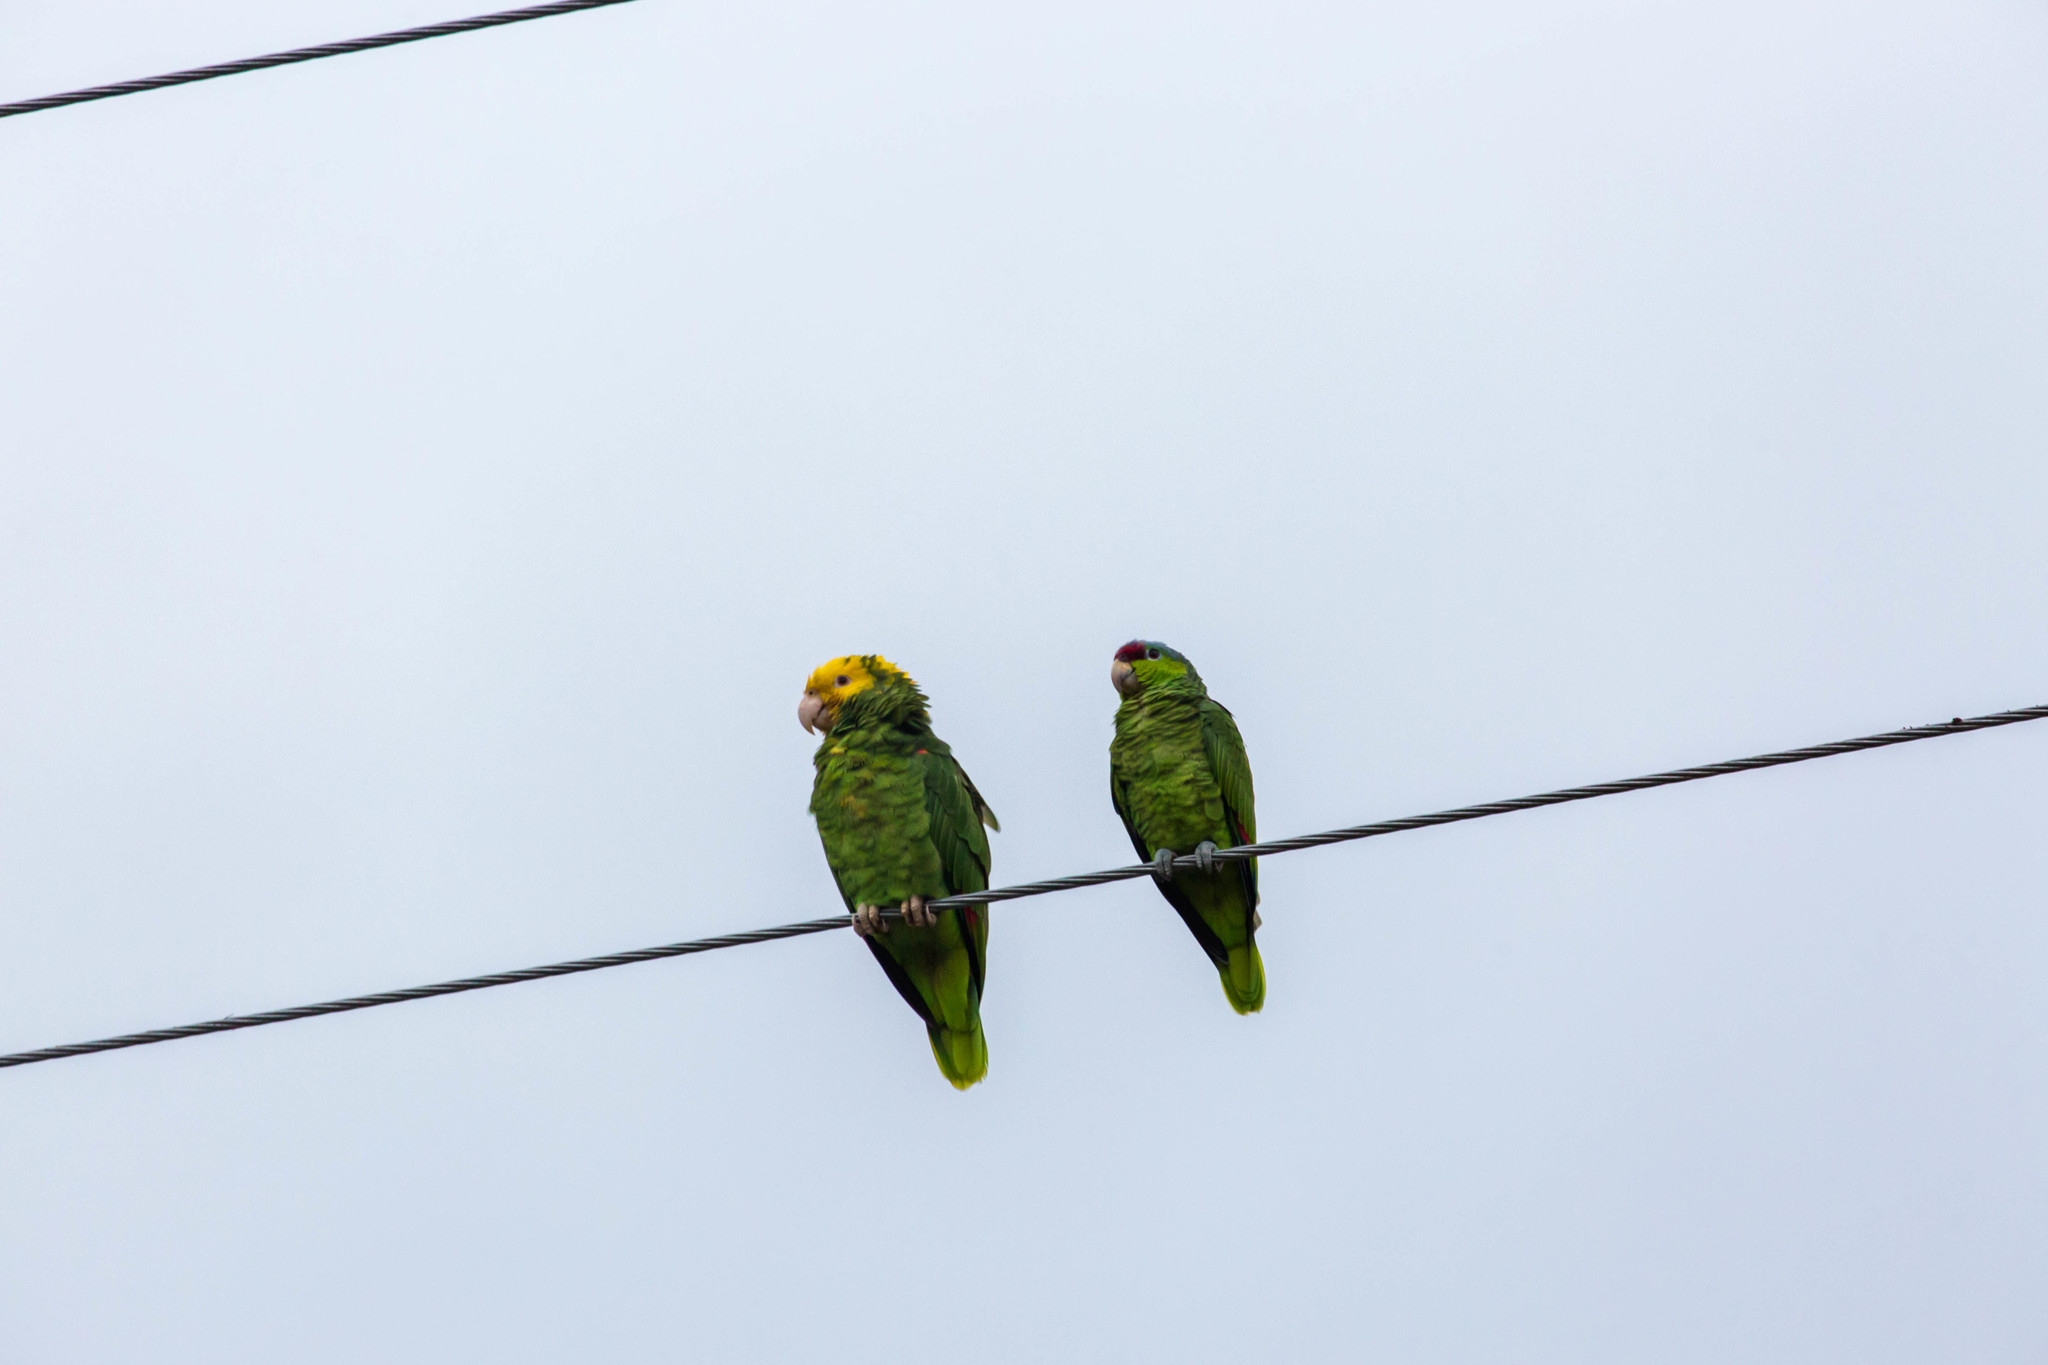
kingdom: Animalia
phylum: Chordata
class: Aves
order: Psittaciformes
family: Psittacidae
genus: Amazona
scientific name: Amazona viridigenalis
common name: Red-crowned amazon
